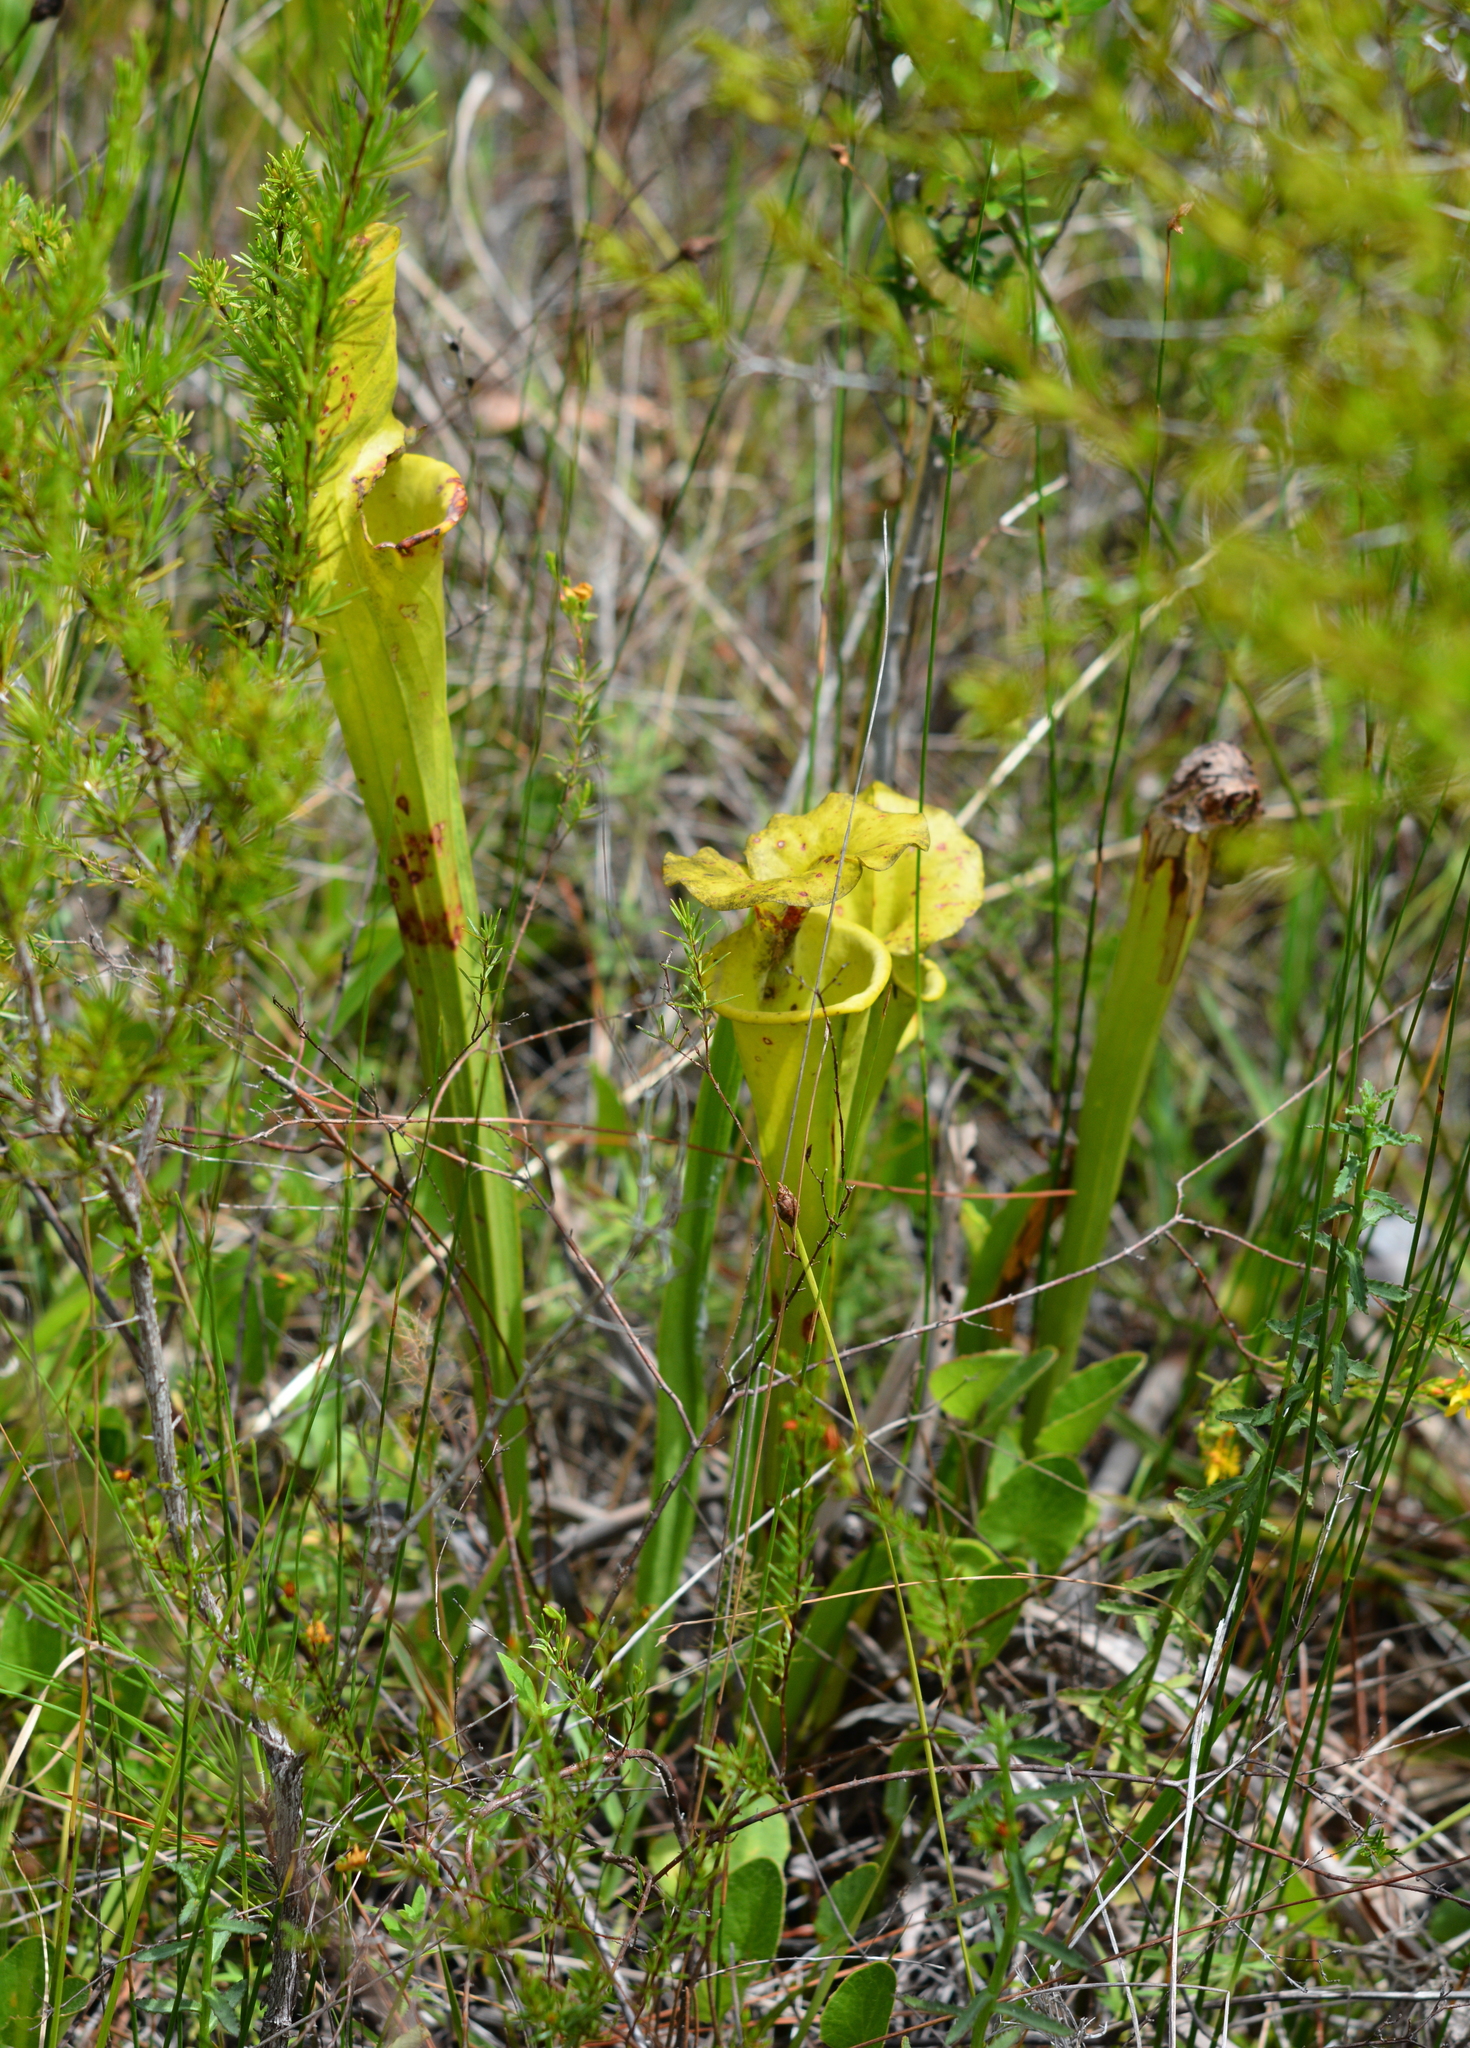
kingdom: Plantae
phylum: Tracheophyta
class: Magnoliopsida
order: Ericales
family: Sarraceniaceae
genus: Sarracenia
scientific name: Sarracenia flava
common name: Trumpets
